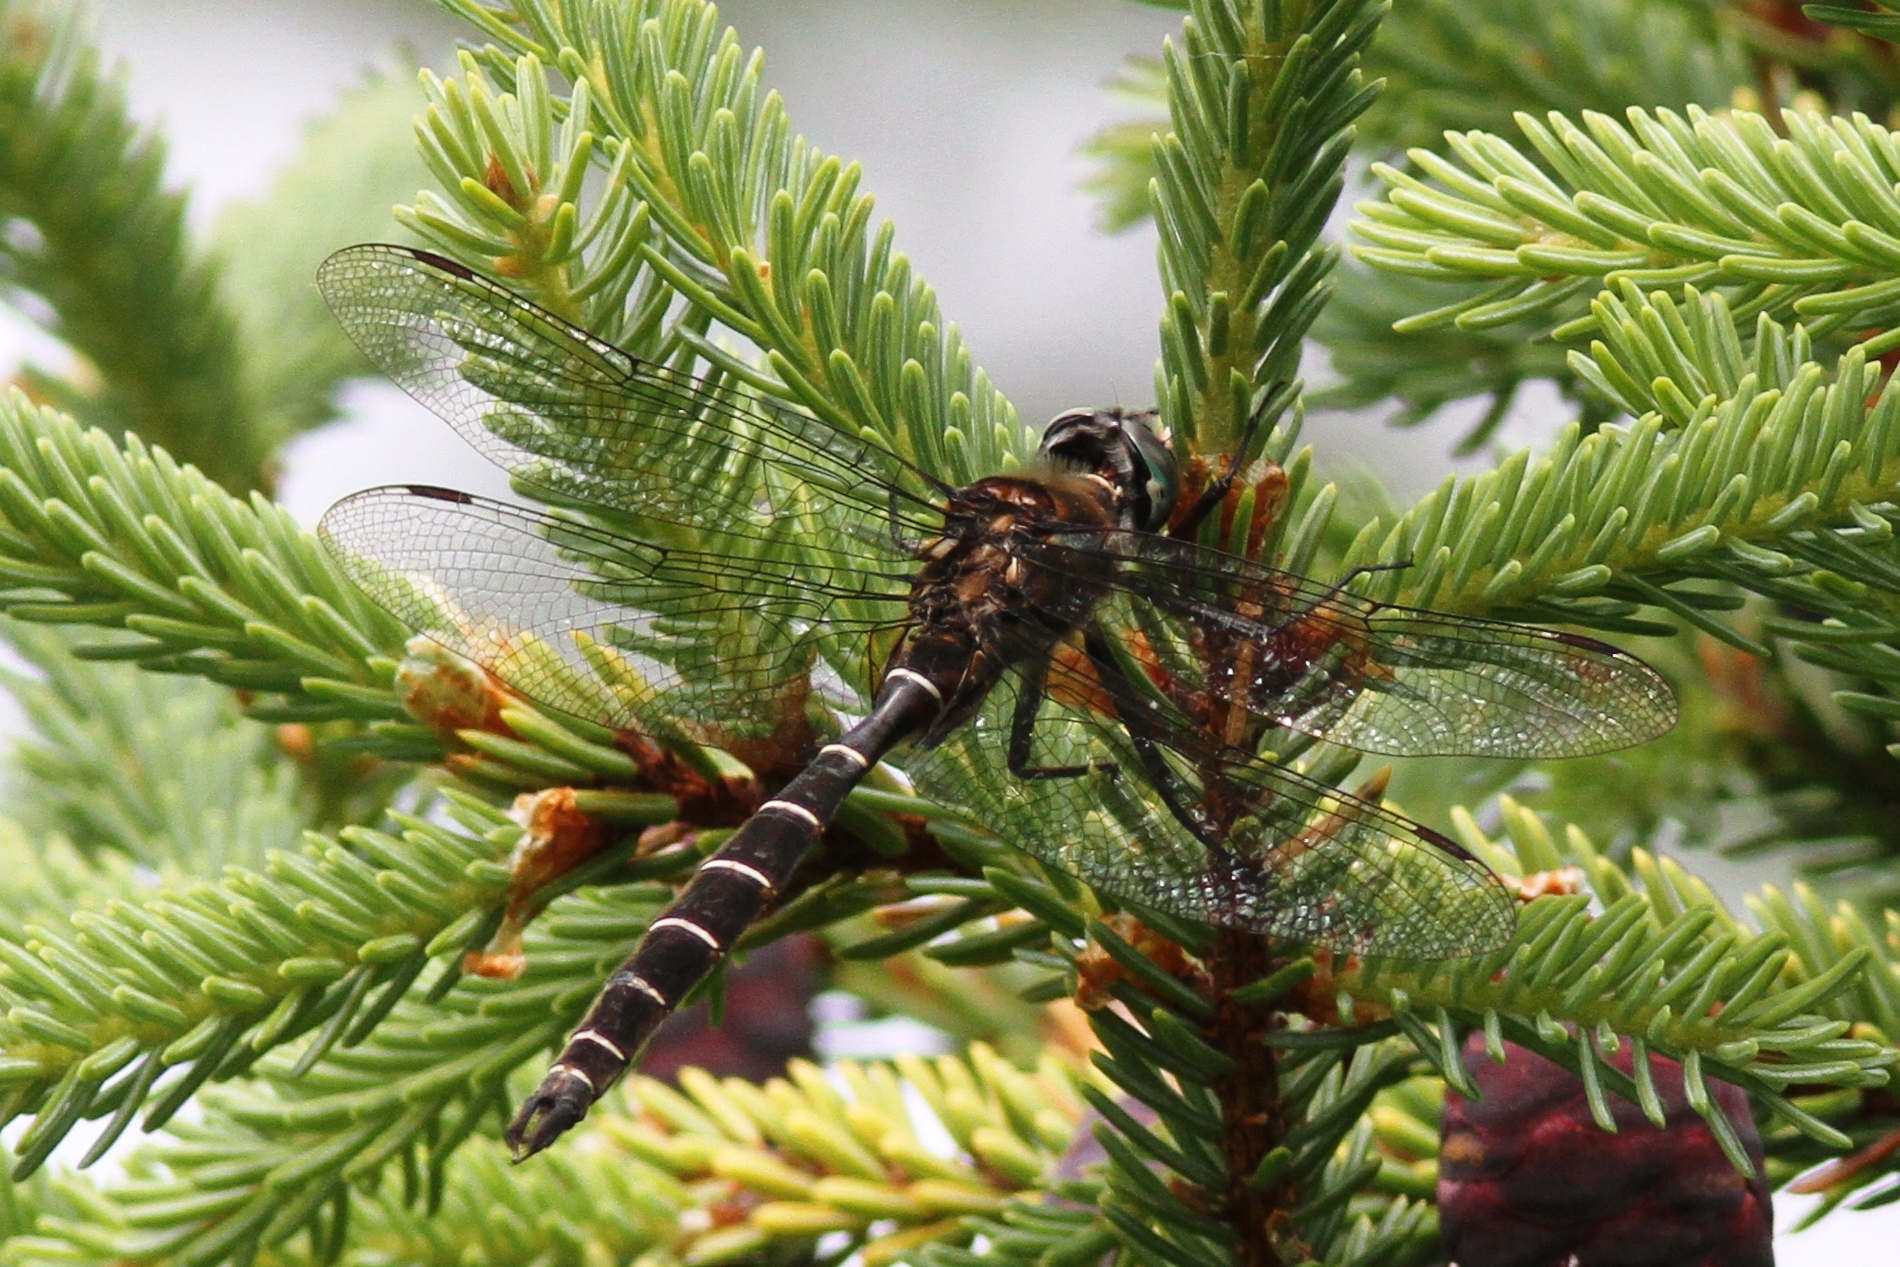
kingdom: Animalia
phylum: Arthropoda
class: Insecta
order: Odonata
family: Corduliidae
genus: Somatochlora
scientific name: Somatochlora cingulata
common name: Lake emerald
